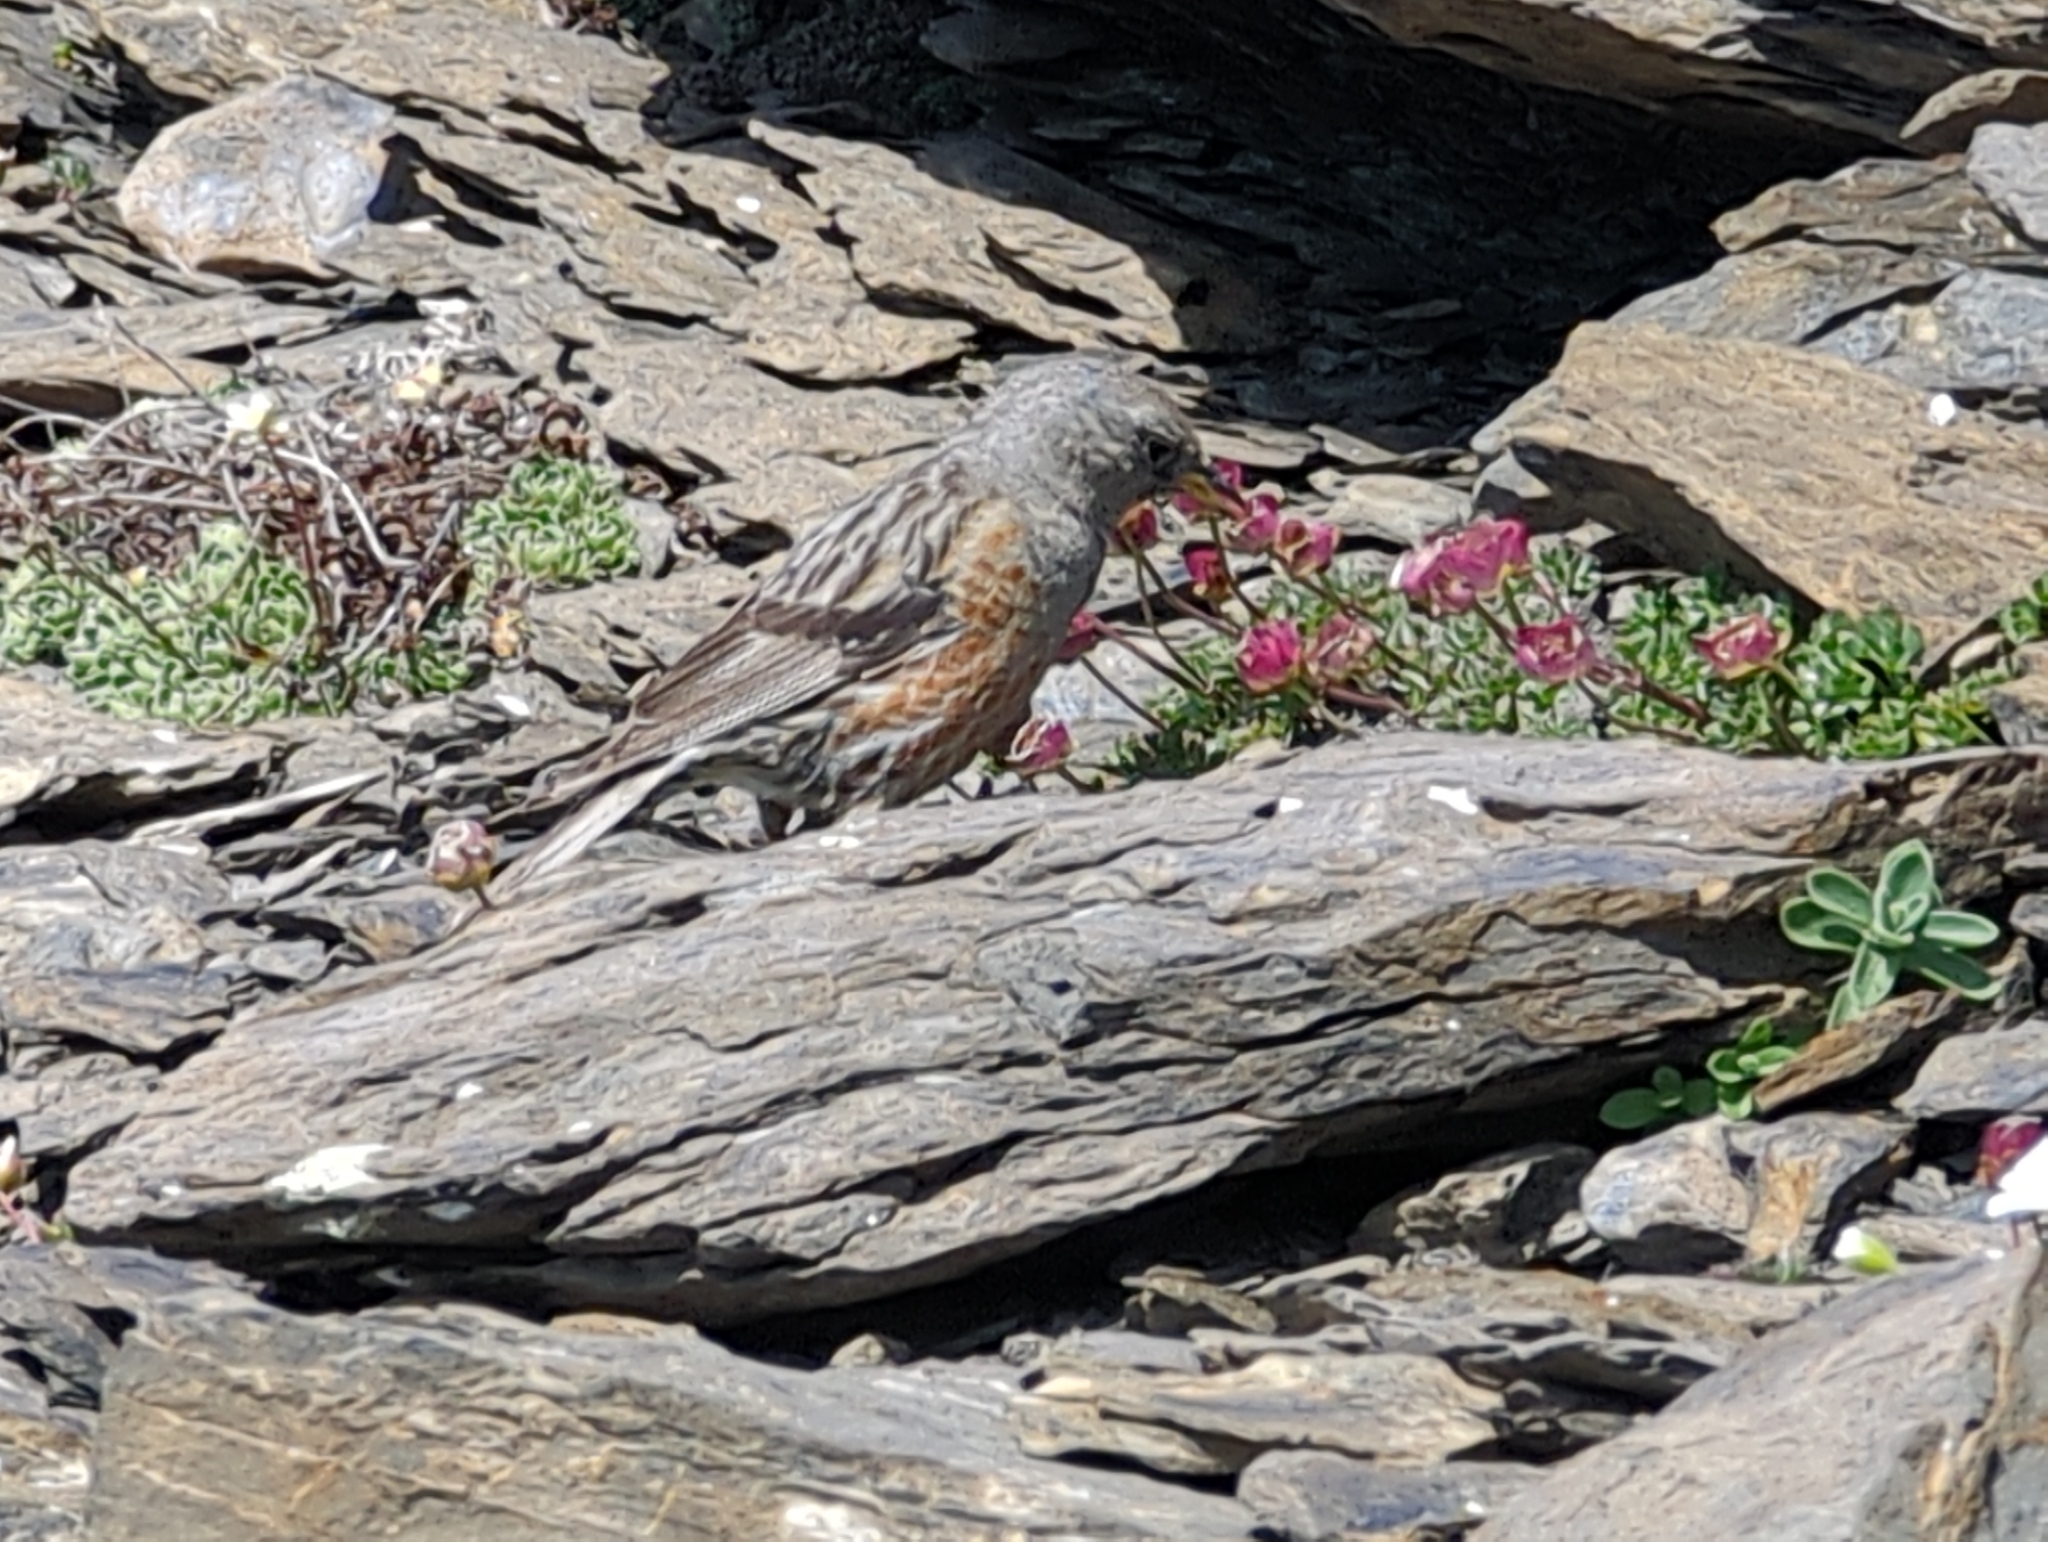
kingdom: Animalia
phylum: Chordata
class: Aves
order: Passeriformes
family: Prunellidae
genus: Prunella
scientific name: Prunella collaris
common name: Alpine accentor
